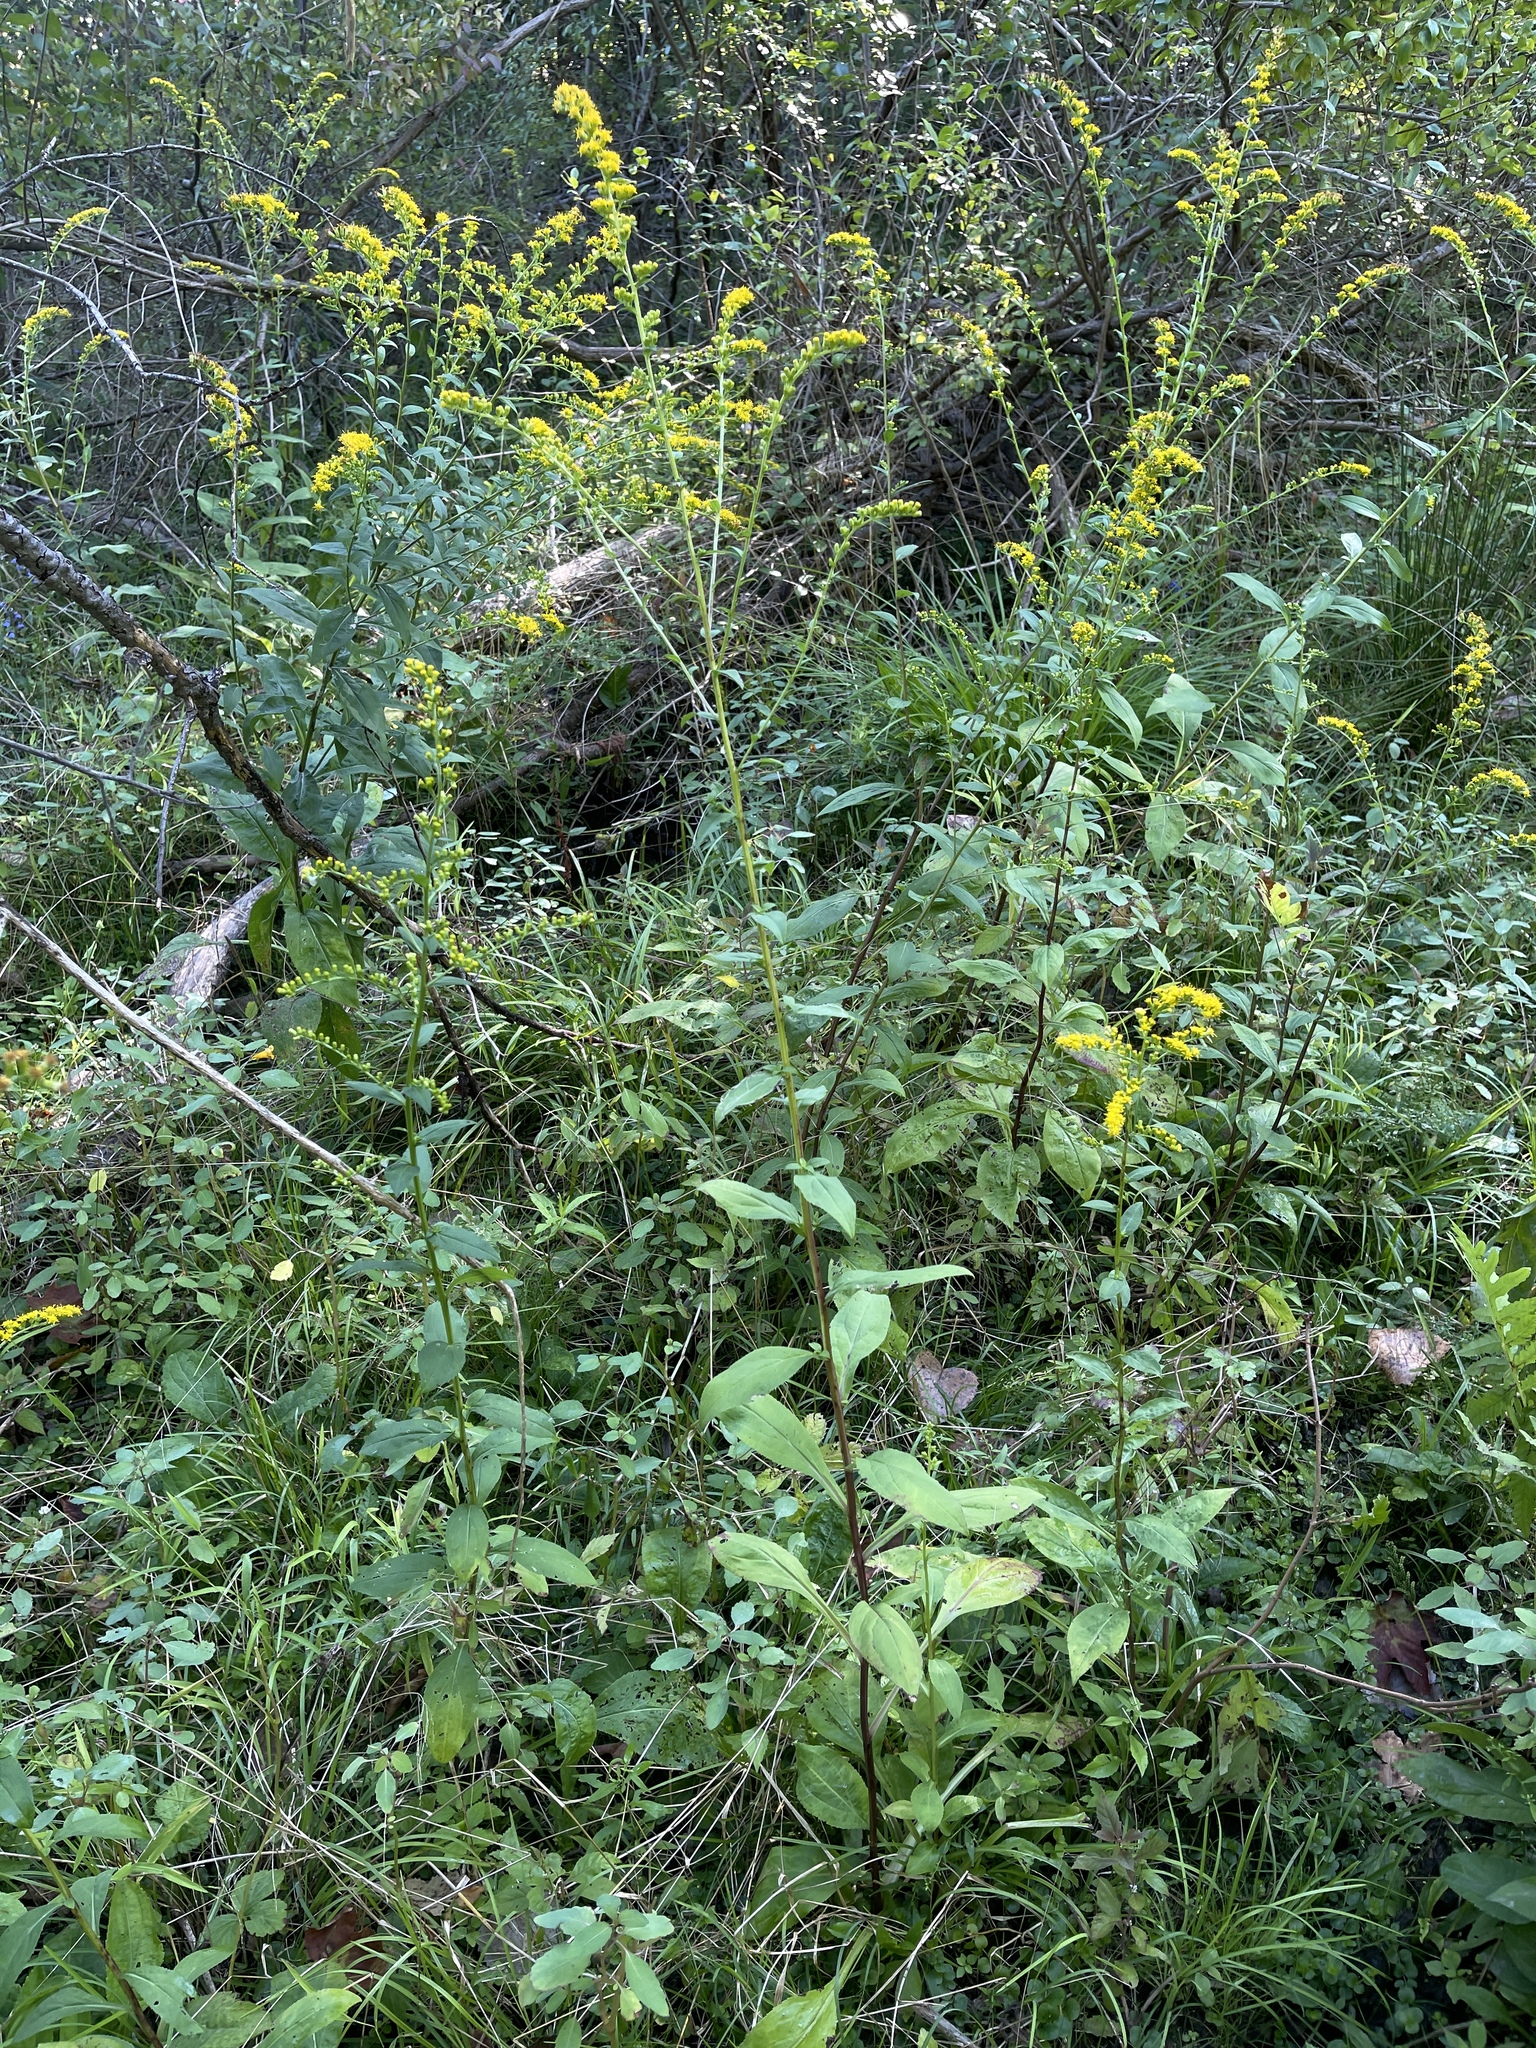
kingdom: Plantae
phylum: Tracheophyta
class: Magnoliopsida
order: Asterales
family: Asteraceae
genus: Solidago
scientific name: Solidago patula
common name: Rough-leaf goldenrod
